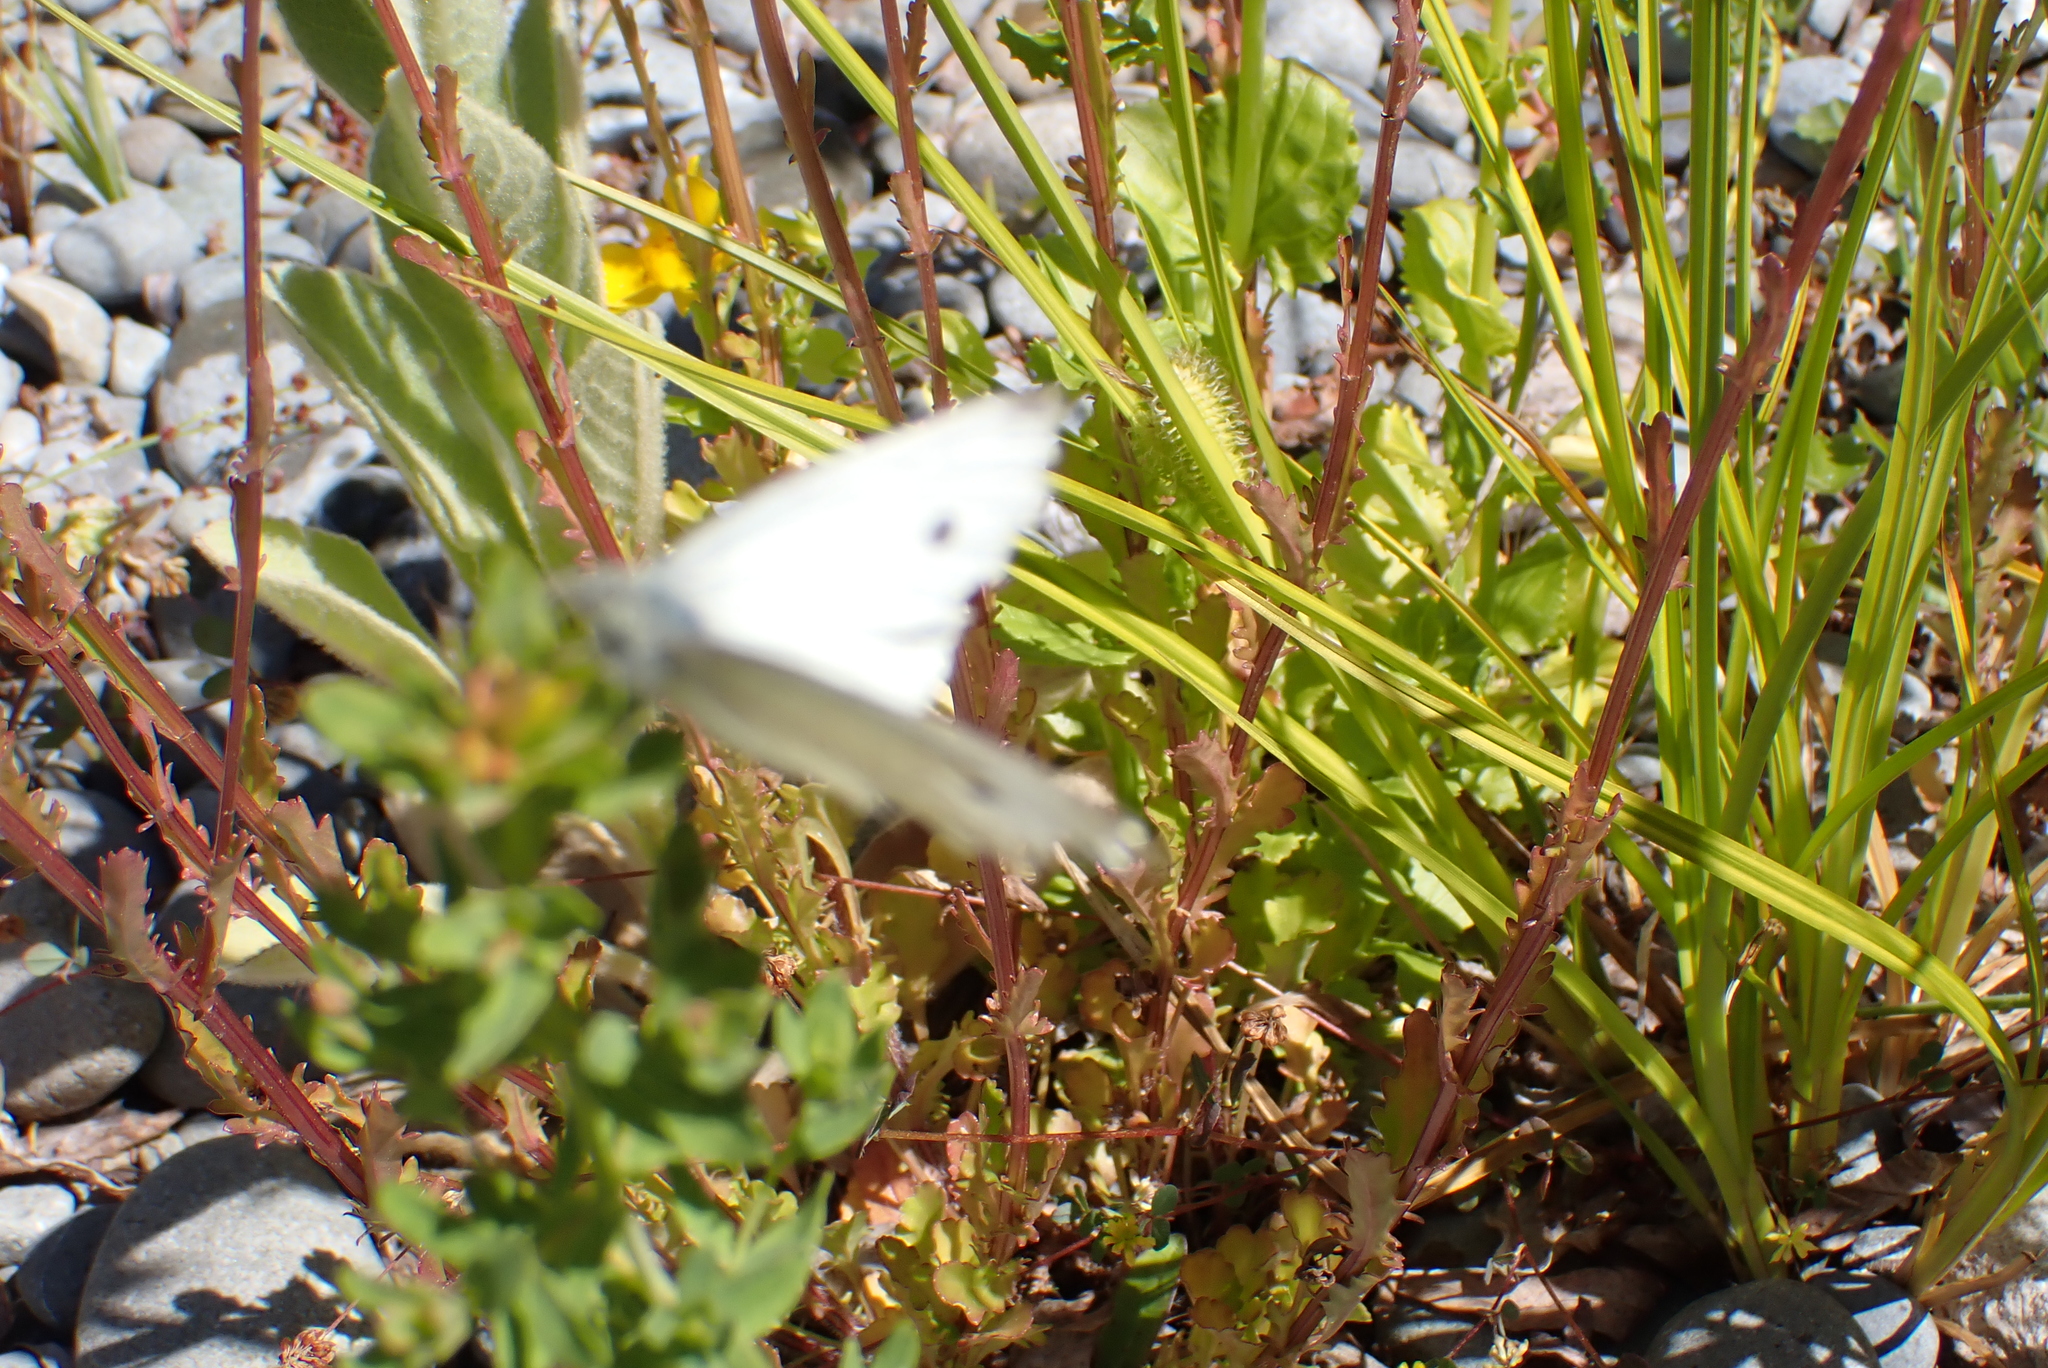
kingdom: Animalia
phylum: Arthropoda
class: Insecta
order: Lepidoptera
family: Pieridae
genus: Pieris
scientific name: Pieris rapae
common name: Small white
